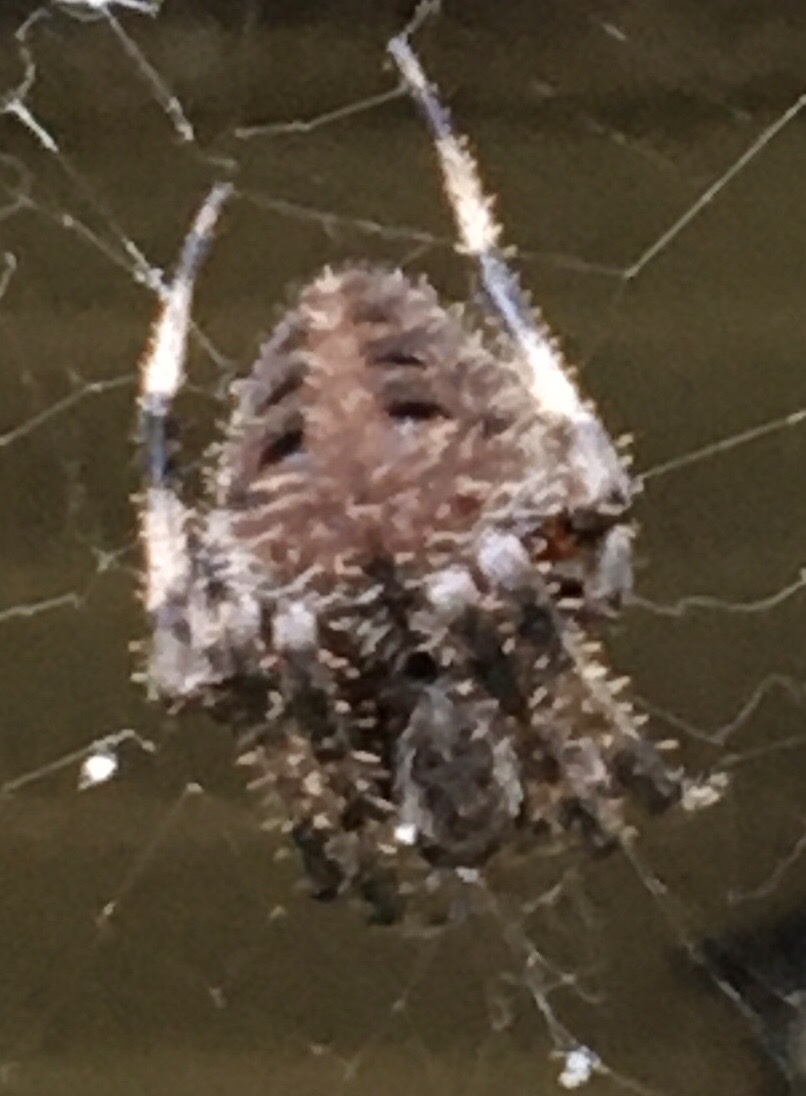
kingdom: Animalia
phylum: Arthropoda
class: Arachnida
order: Araneae
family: Araneidae
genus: Neoscona
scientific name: Neoscona crucifera
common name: Spotted orbweaver
